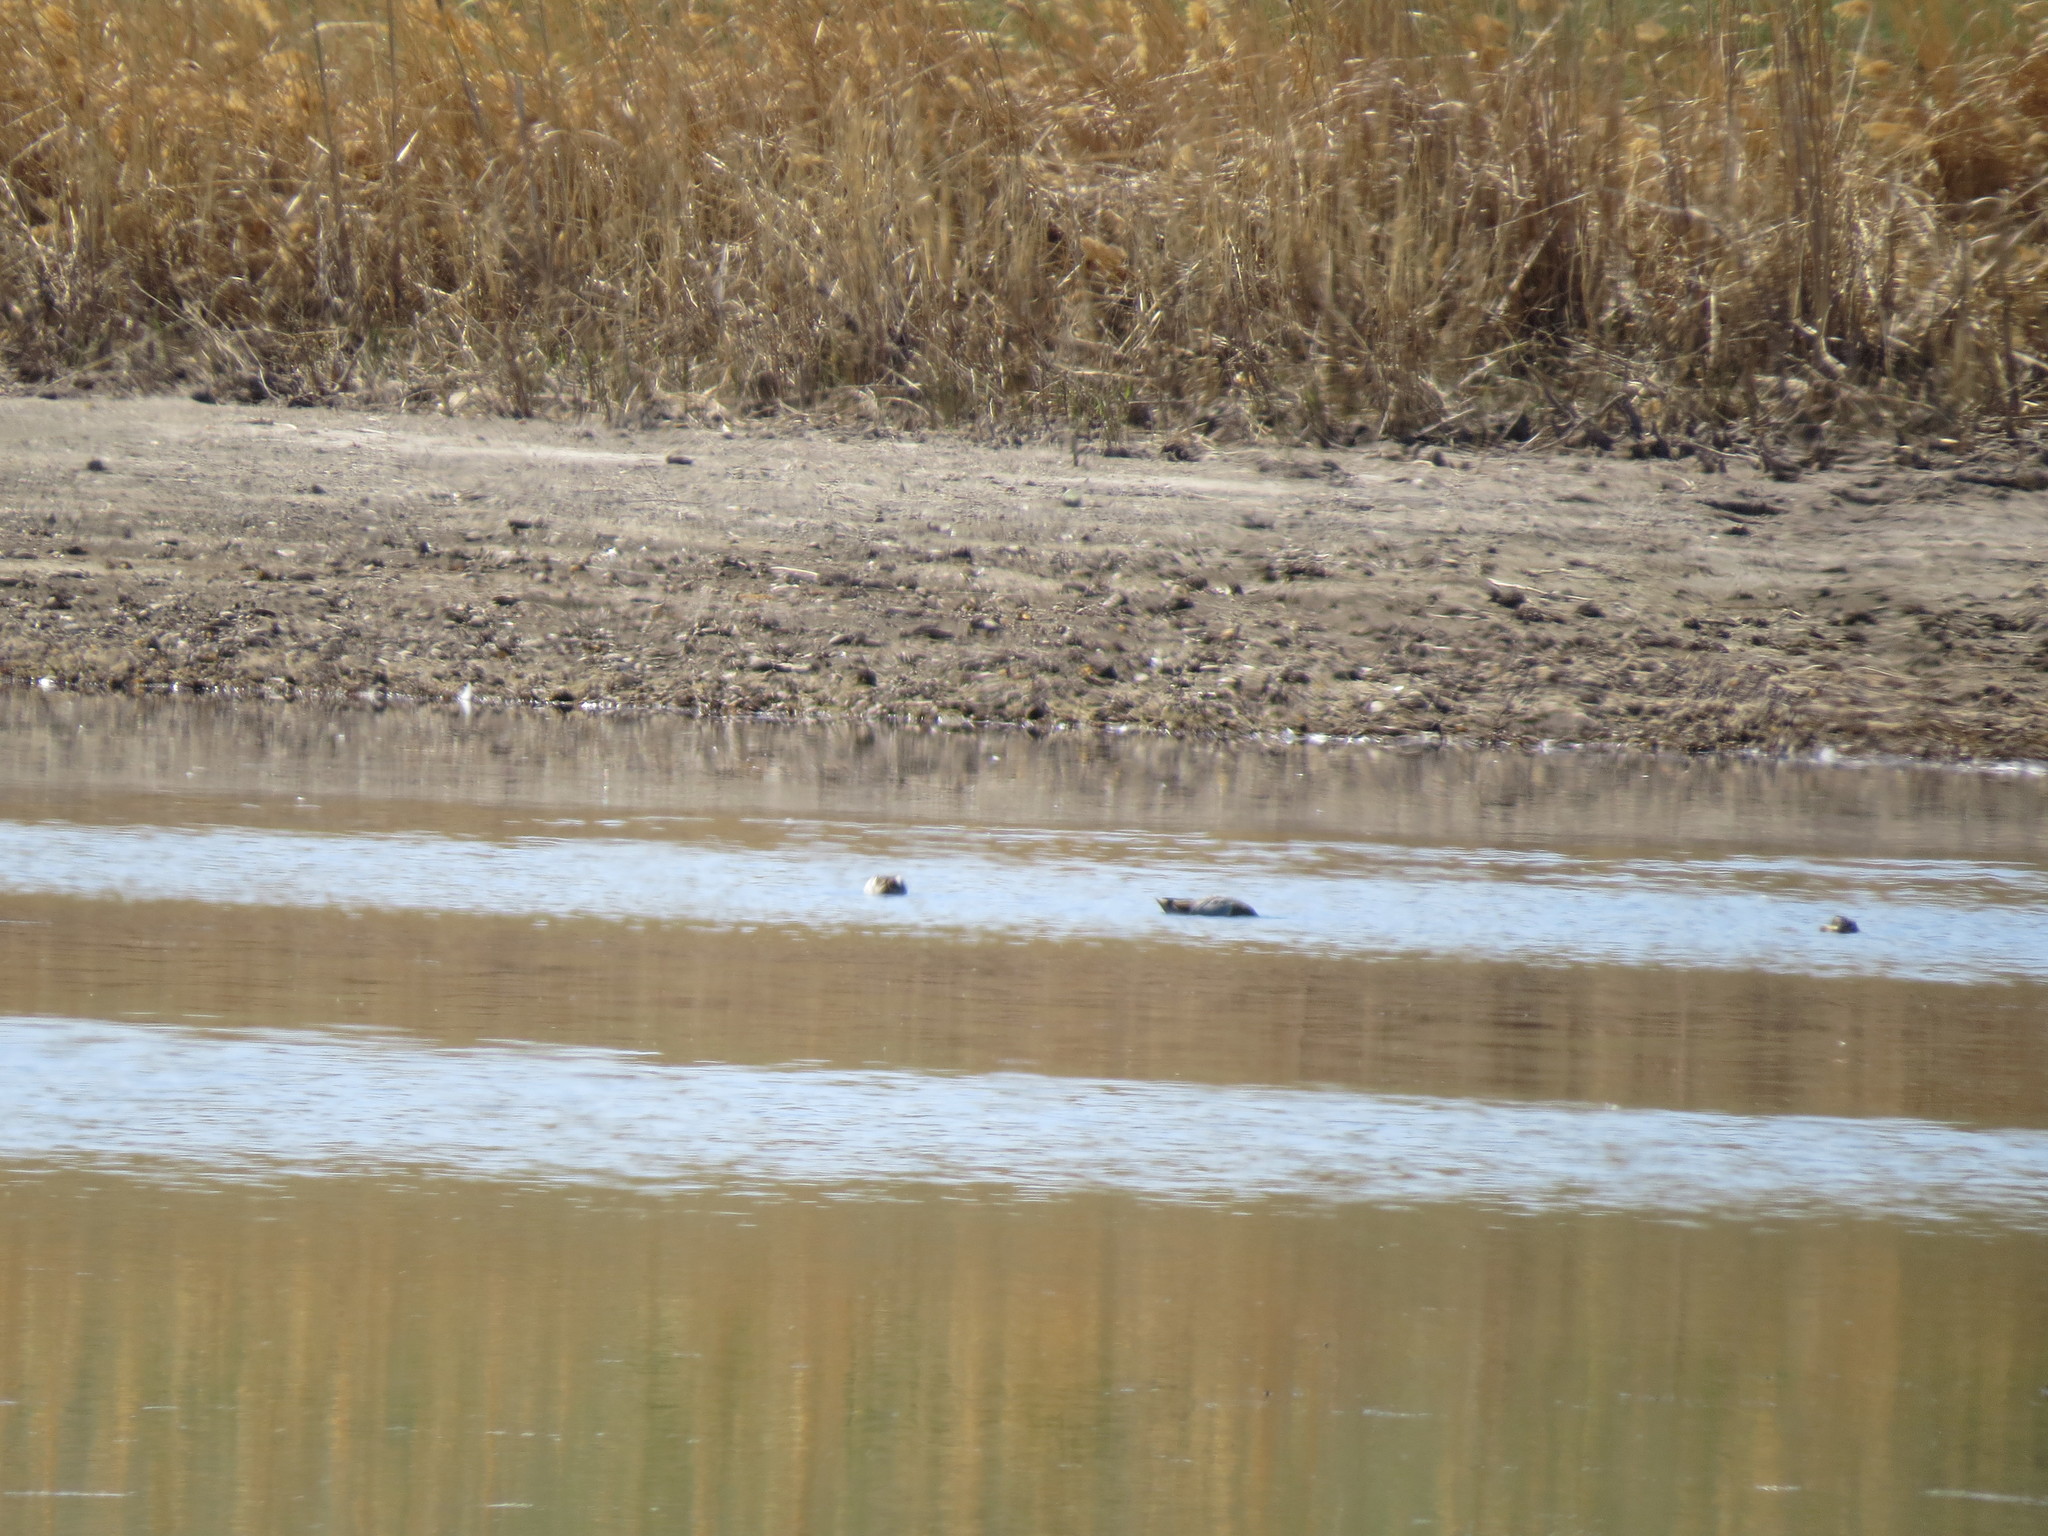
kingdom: Animalia
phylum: Chordata
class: Aves
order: Anseriformes
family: Anatidae
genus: Spatula
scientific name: Spatula querquedula
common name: Garganey
